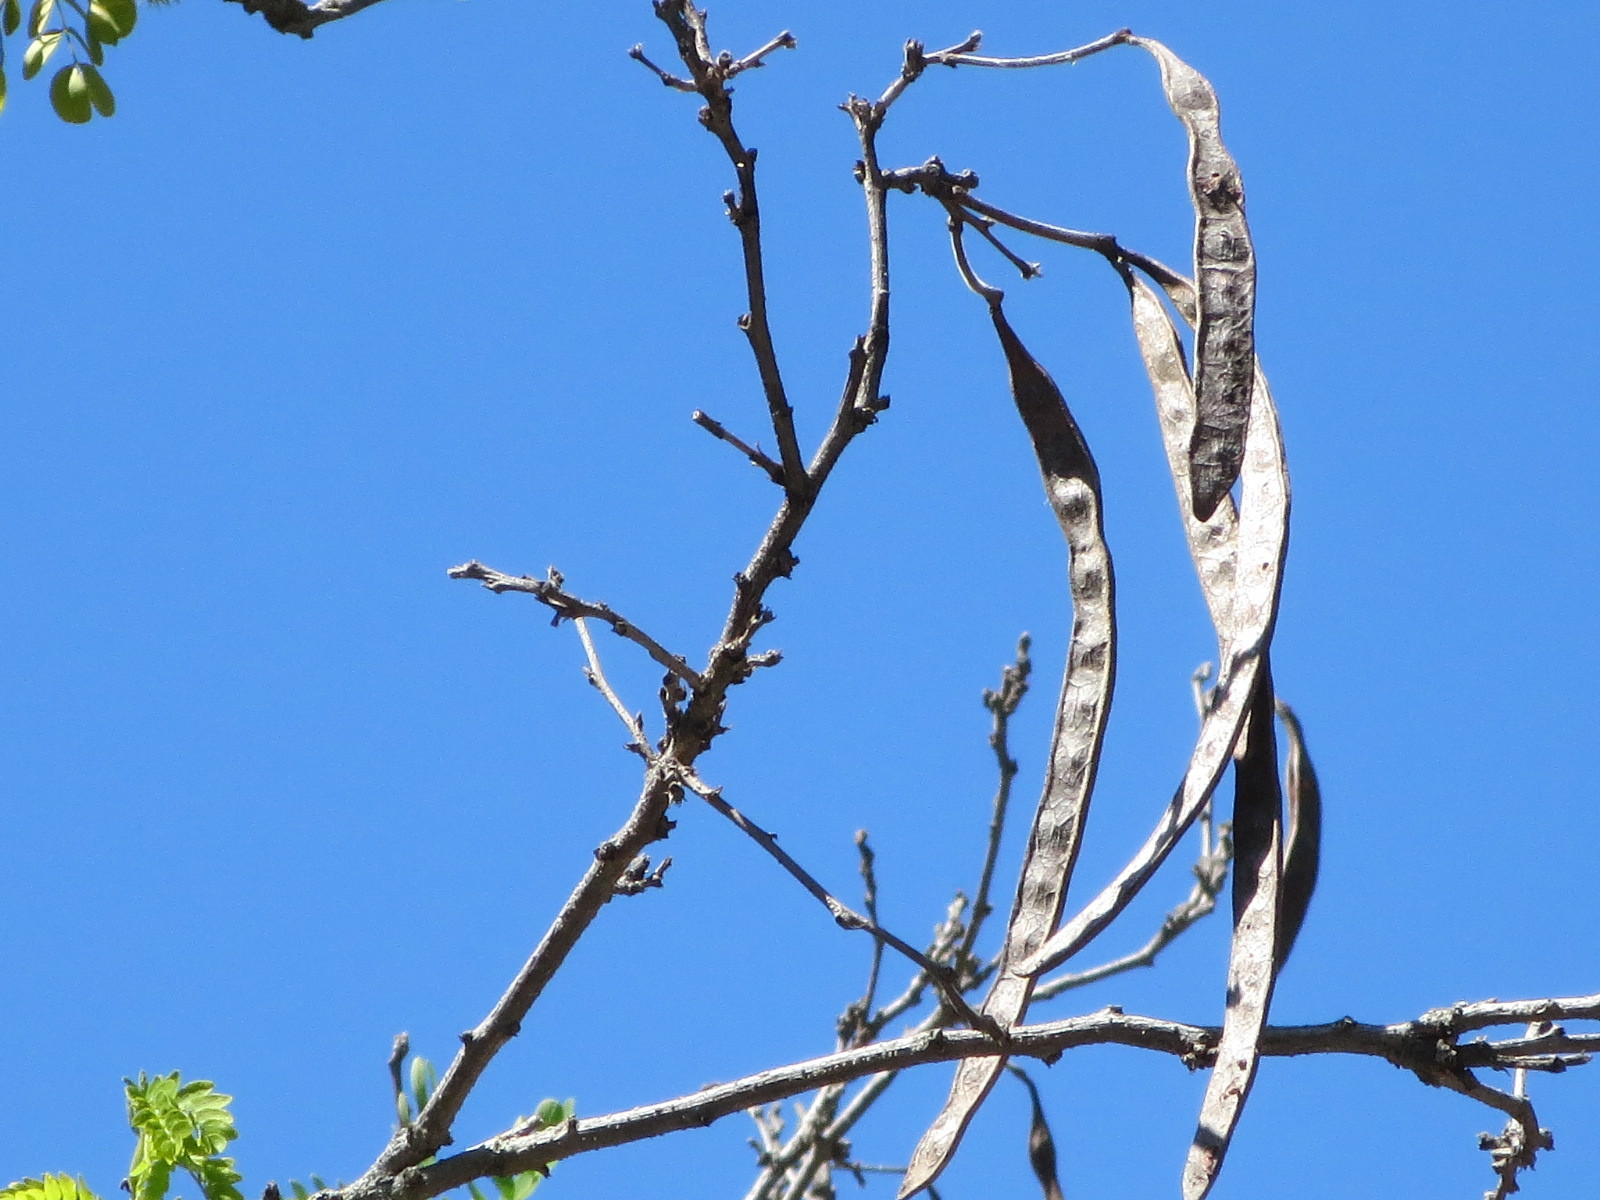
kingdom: Plantae
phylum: Tracheophyta
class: Magnoliopsida
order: Fabales
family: Fabaceae
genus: Leucaena
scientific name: Leucaena retusa
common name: Littleleaf leadtree
